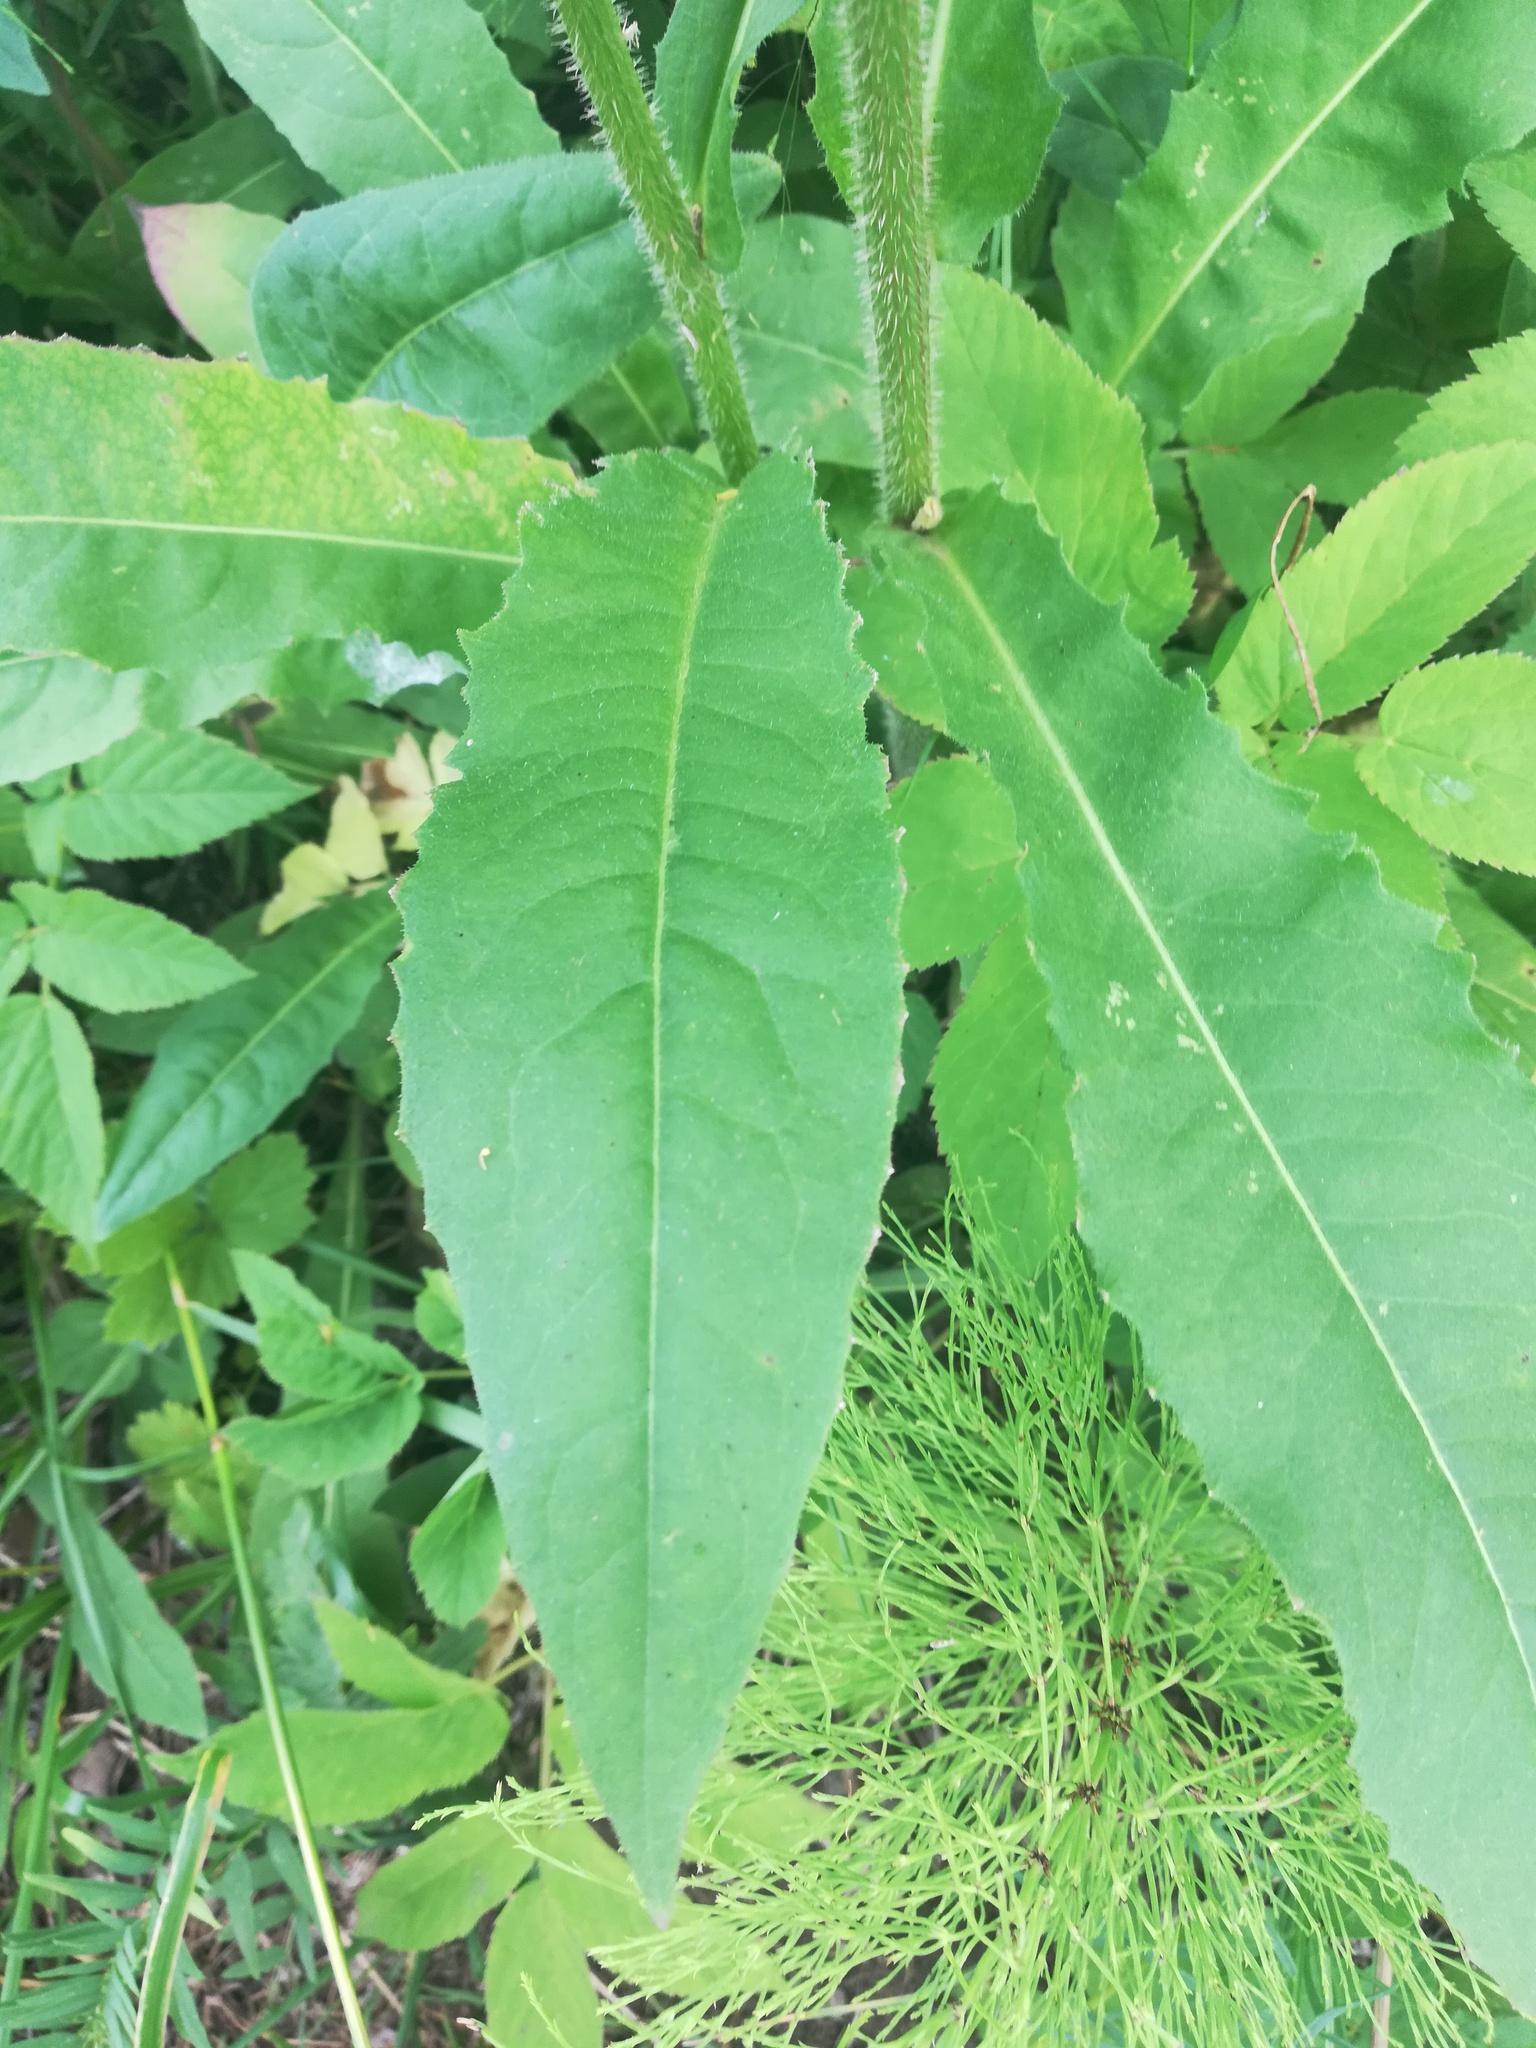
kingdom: Plantae
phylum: Tracheophyta
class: Magnoliopsida
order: Asterales
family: Asteraceae
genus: Picris
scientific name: Picris hieracioides
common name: Hawkweed oxtongue
